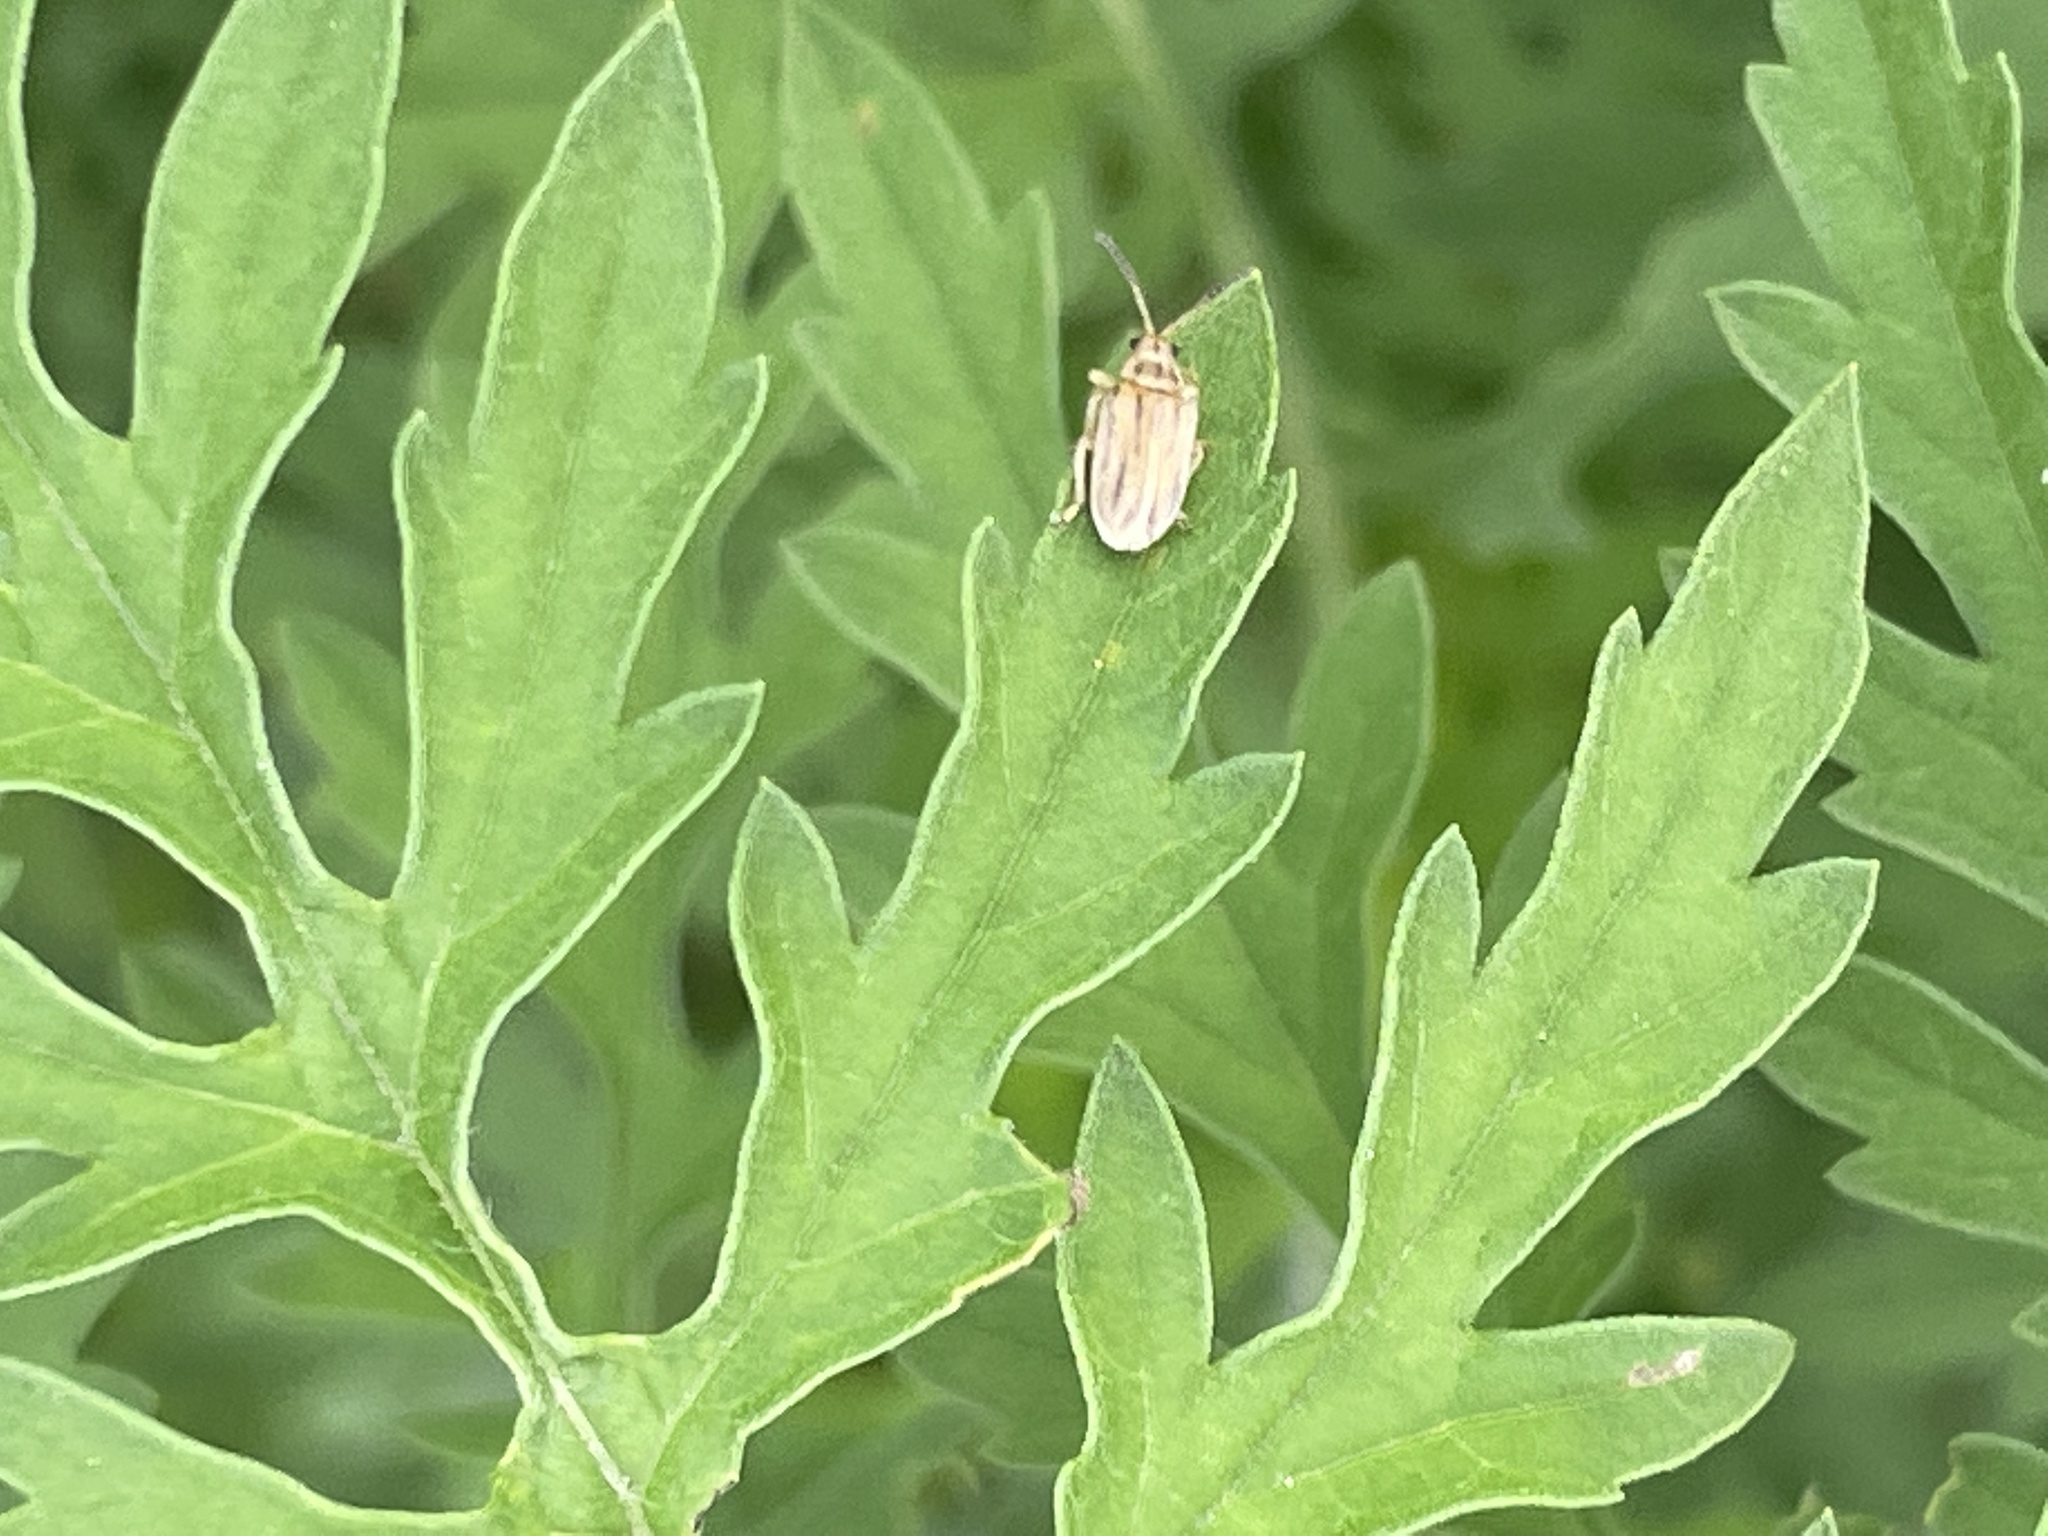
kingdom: Animalia
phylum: Arthropoda
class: Insecta
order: Coleoptera
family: Chrysomelidae
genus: Ophraella
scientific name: Ophraella communa
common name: Ragweed leaf beetle
